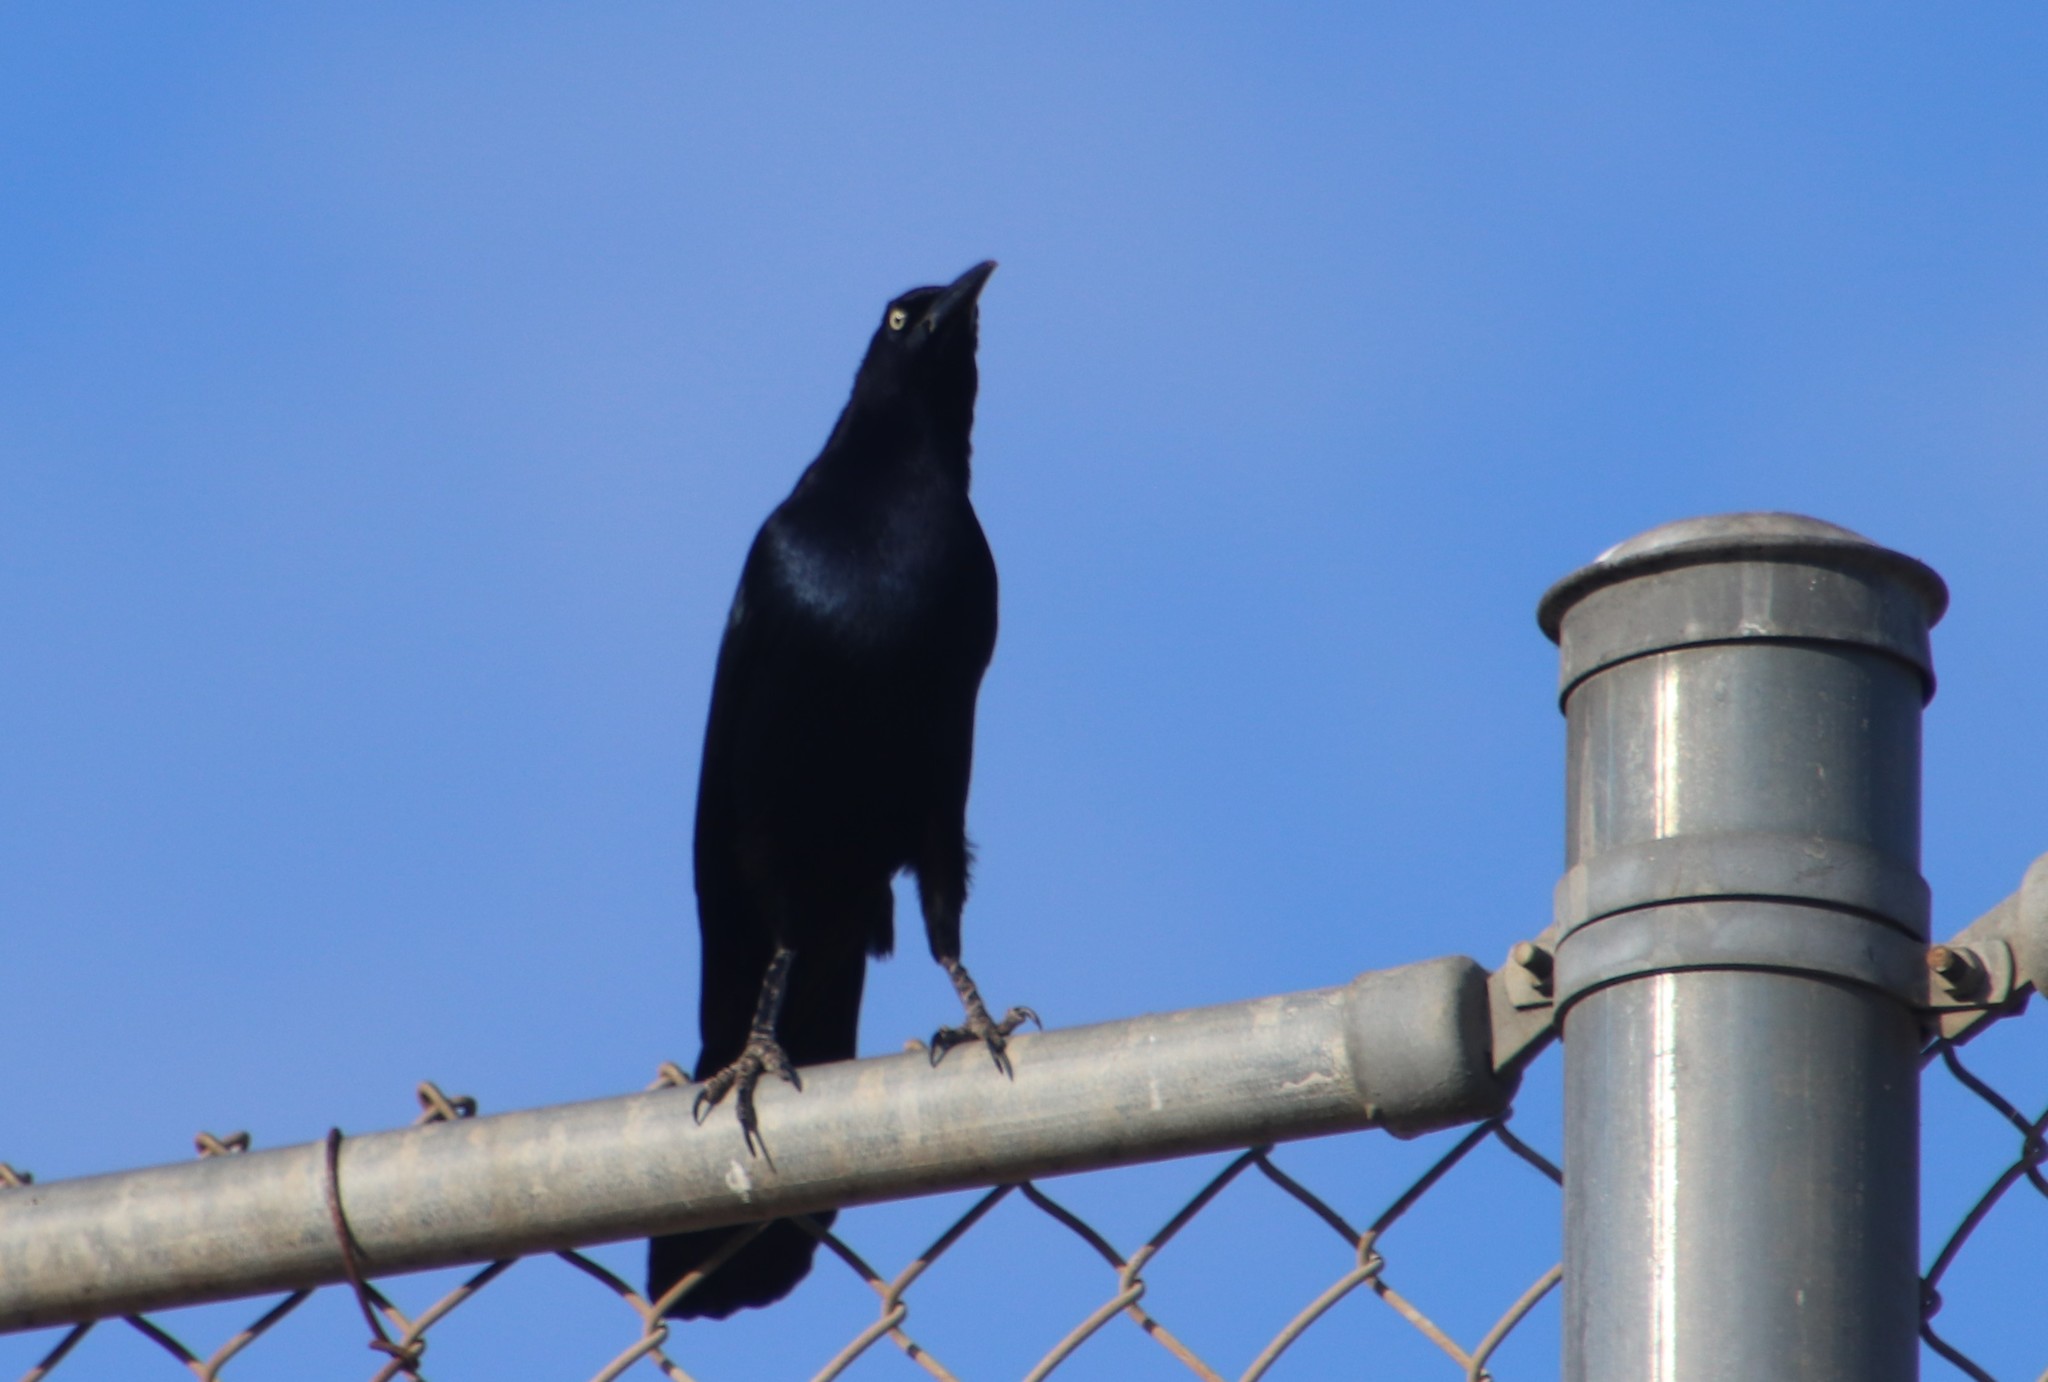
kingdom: Animalia
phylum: Chordata
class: Aves
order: Passeriformes
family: Icteridae
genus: Quiscalus
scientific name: Quiscalus mexicanus
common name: Great-tailed grackle
